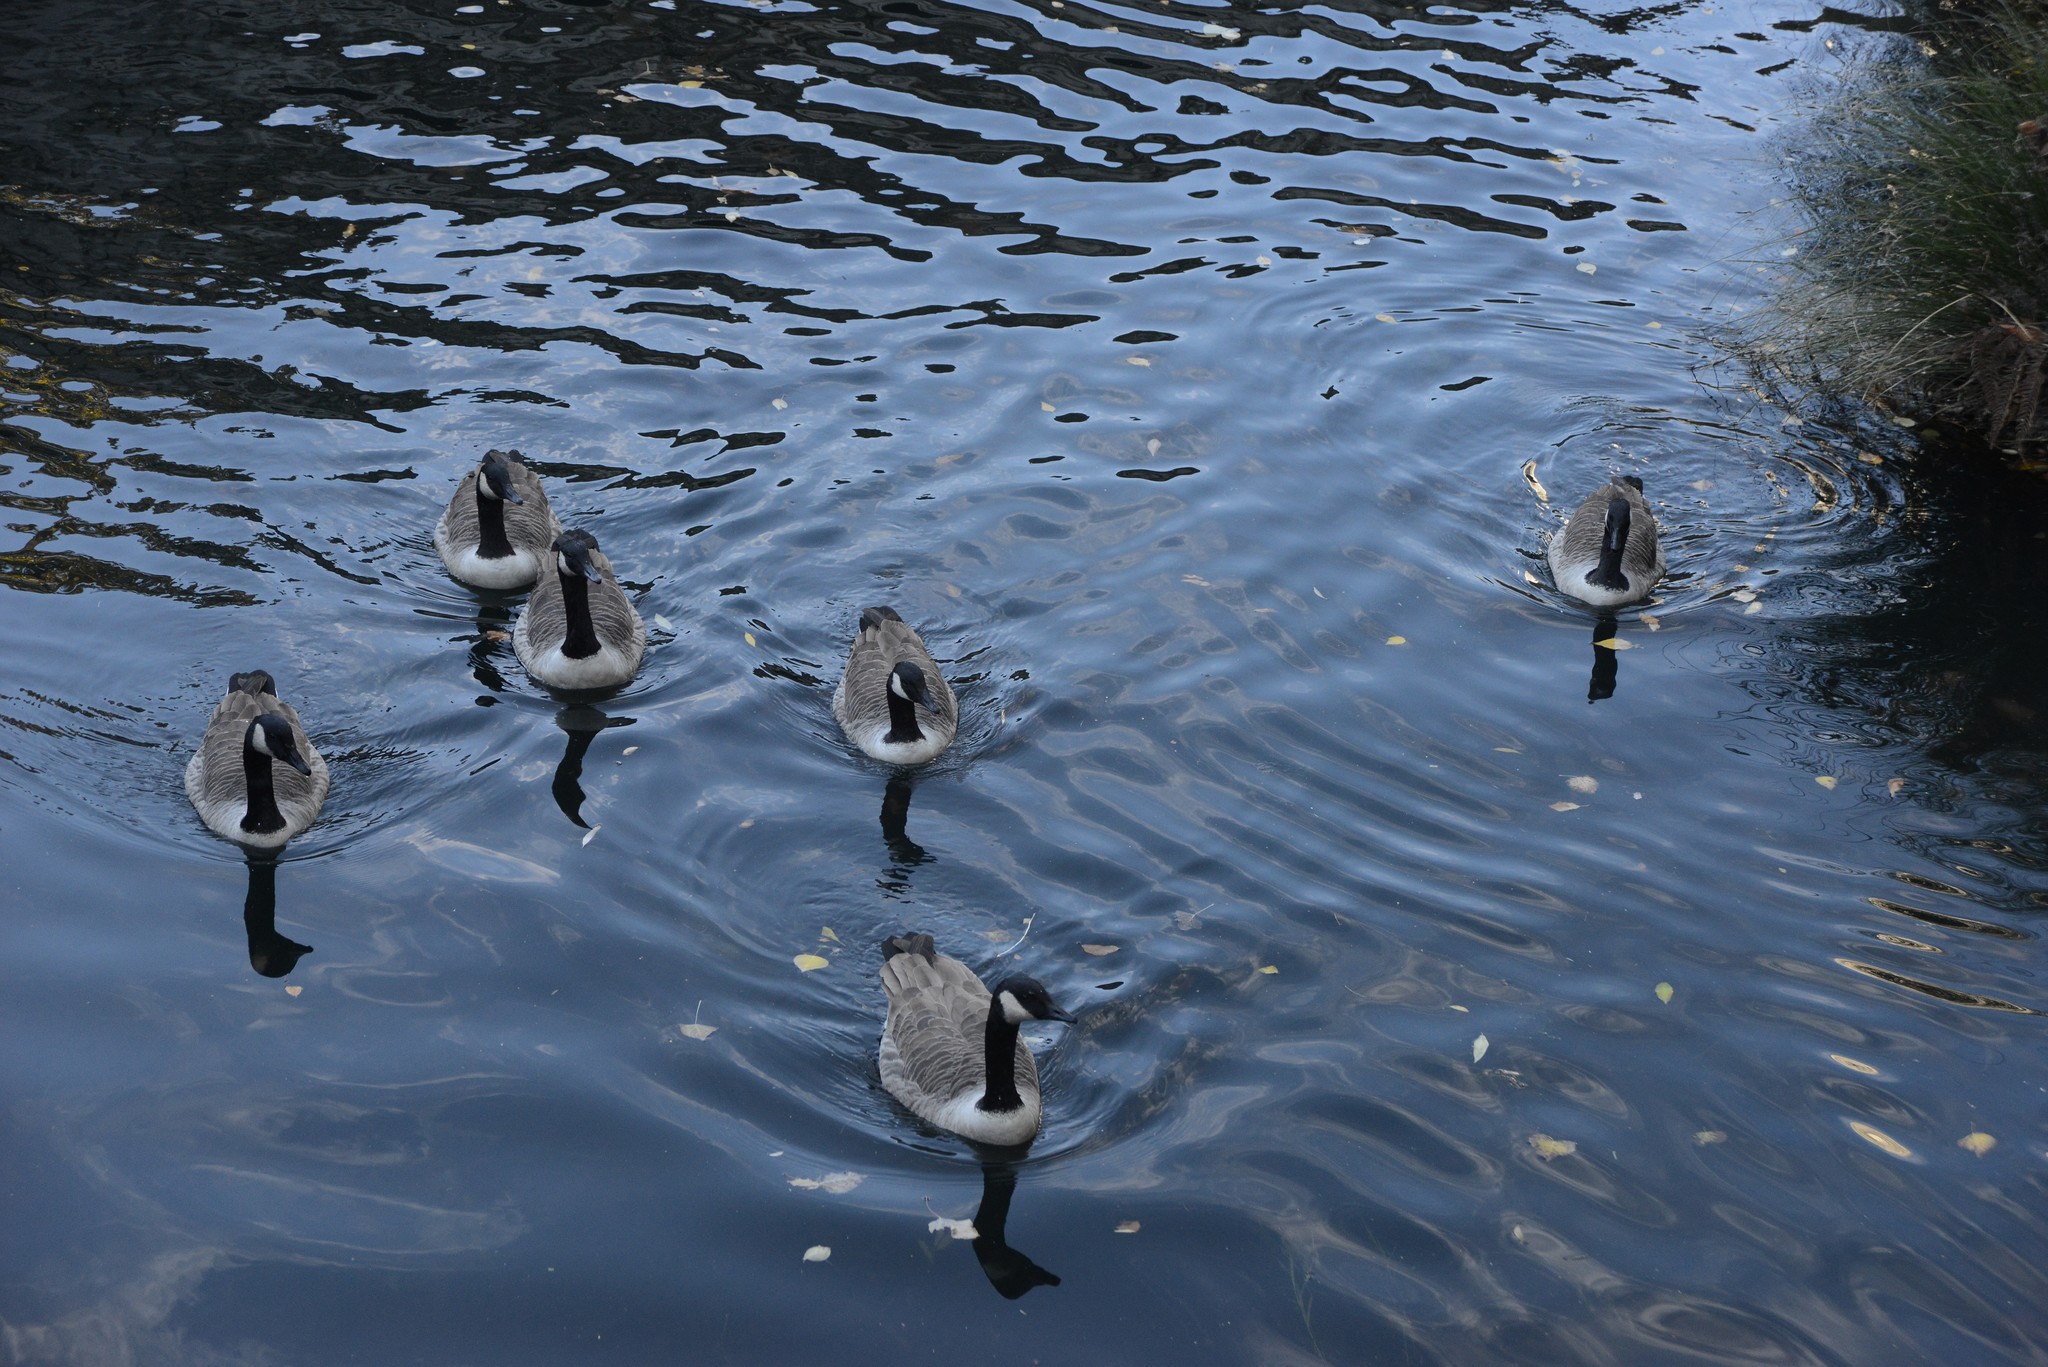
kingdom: Animalia
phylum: Chordata
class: Aves
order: Anseriformes
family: Anatidae
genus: Branta
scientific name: Branta canadensis
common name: Canada goose
